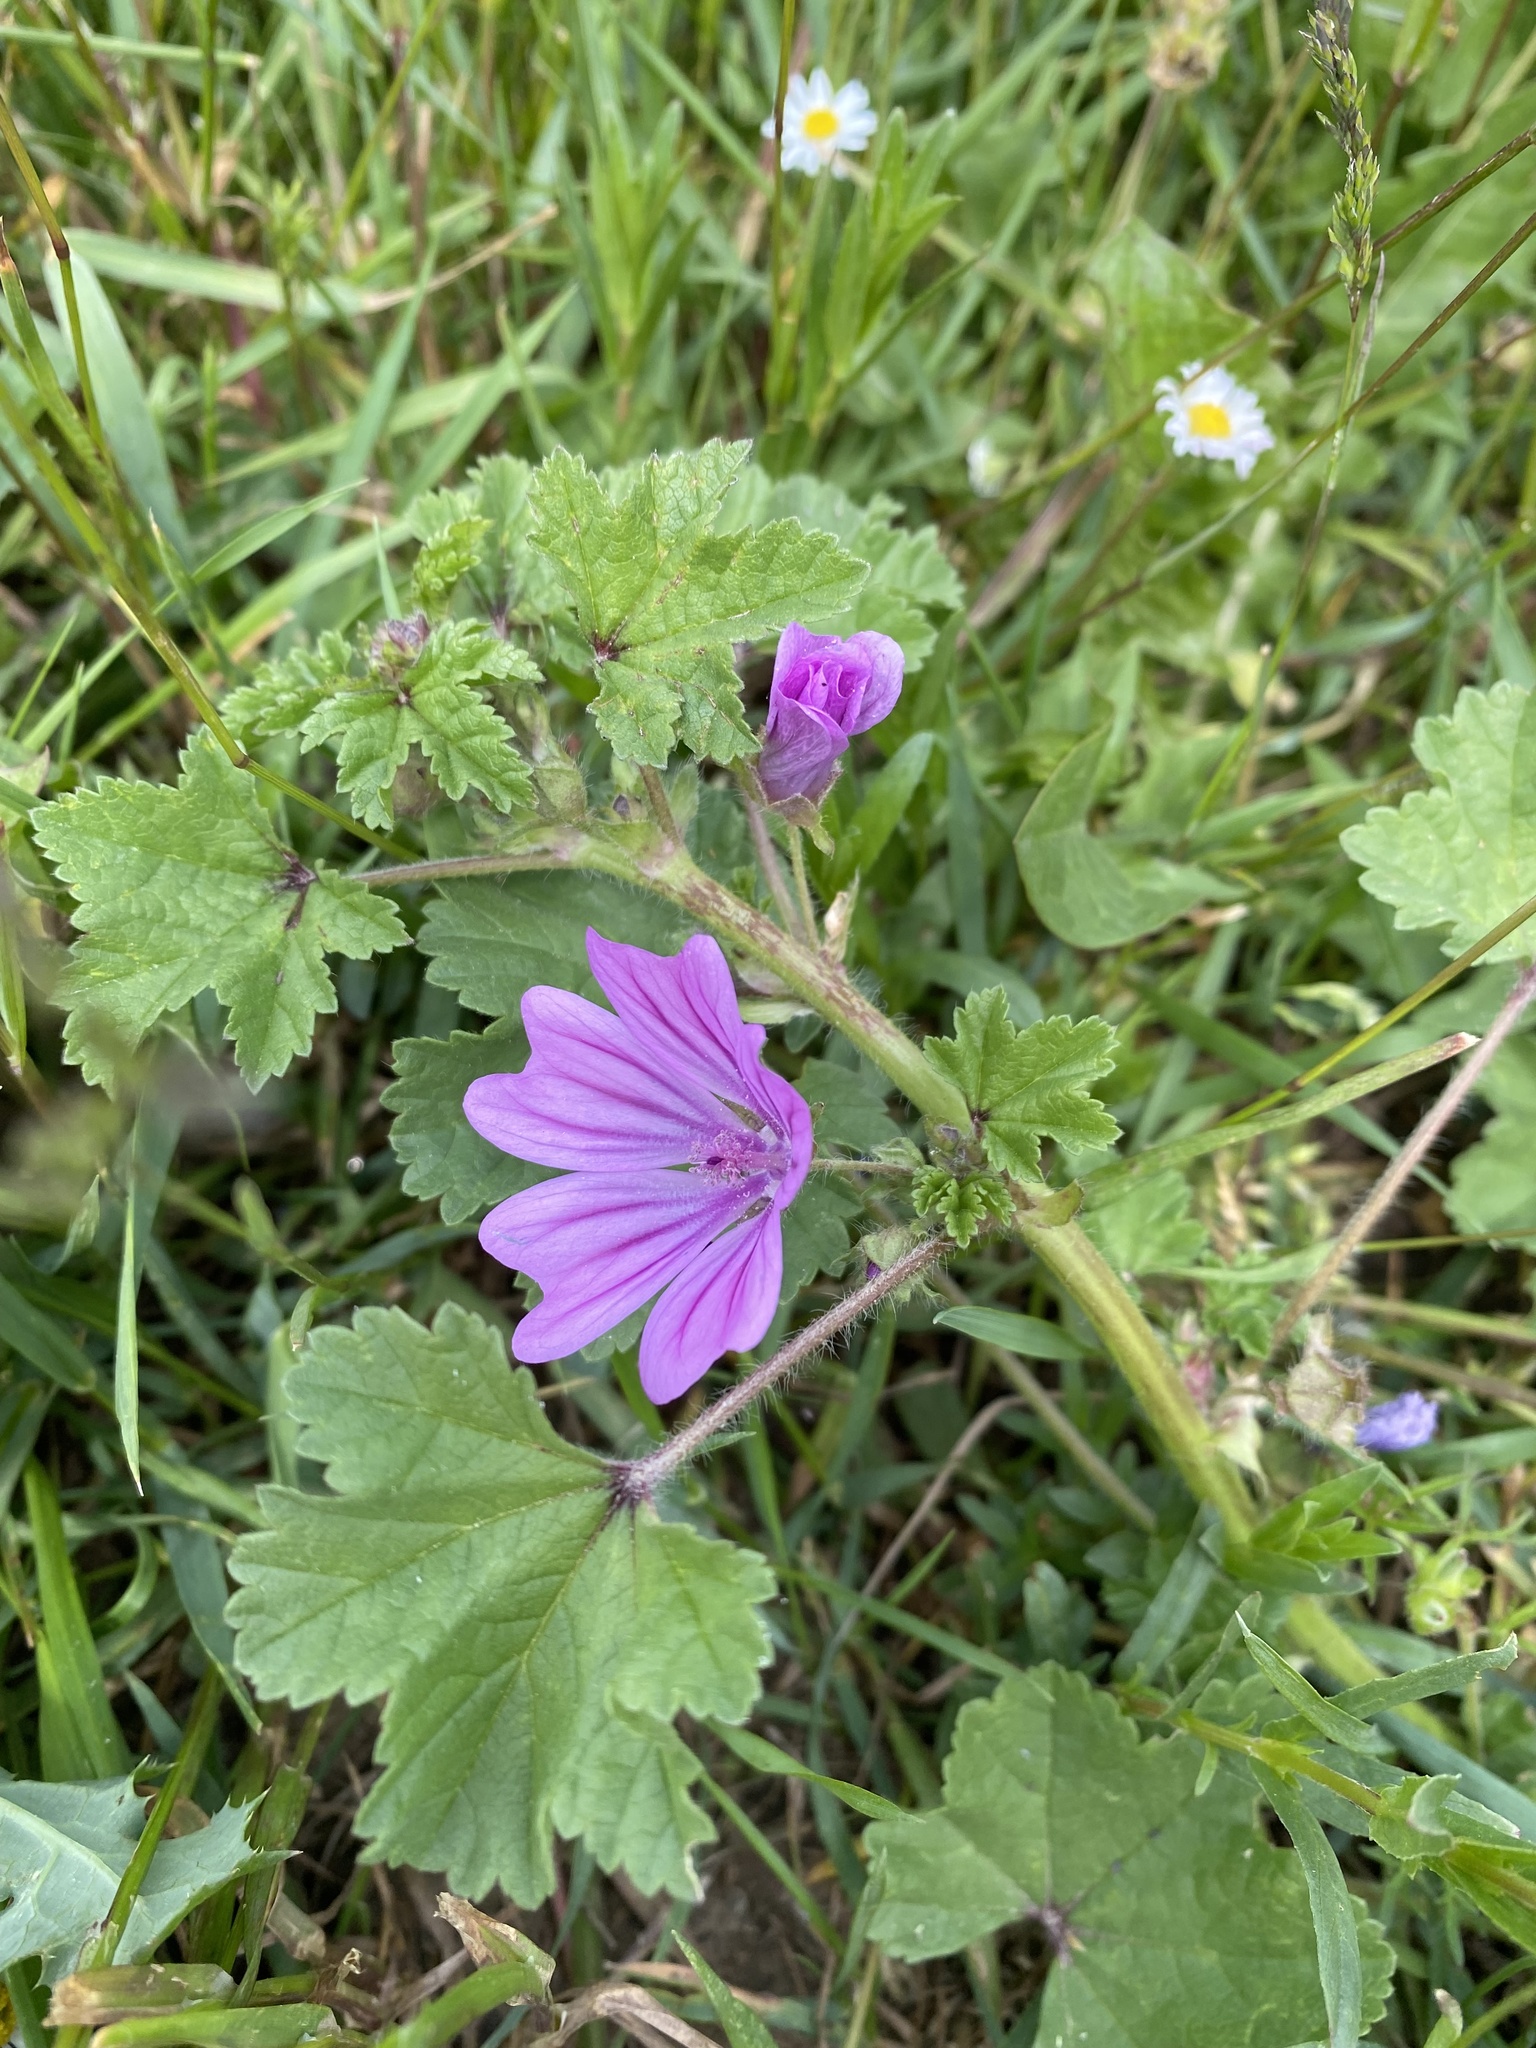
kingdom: Plantae
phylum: Tracheophyta
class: Magnoliopsida
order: Malvales
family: Malvaceae
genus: Malva
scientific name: Malva sylvestris
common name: Common mallow
